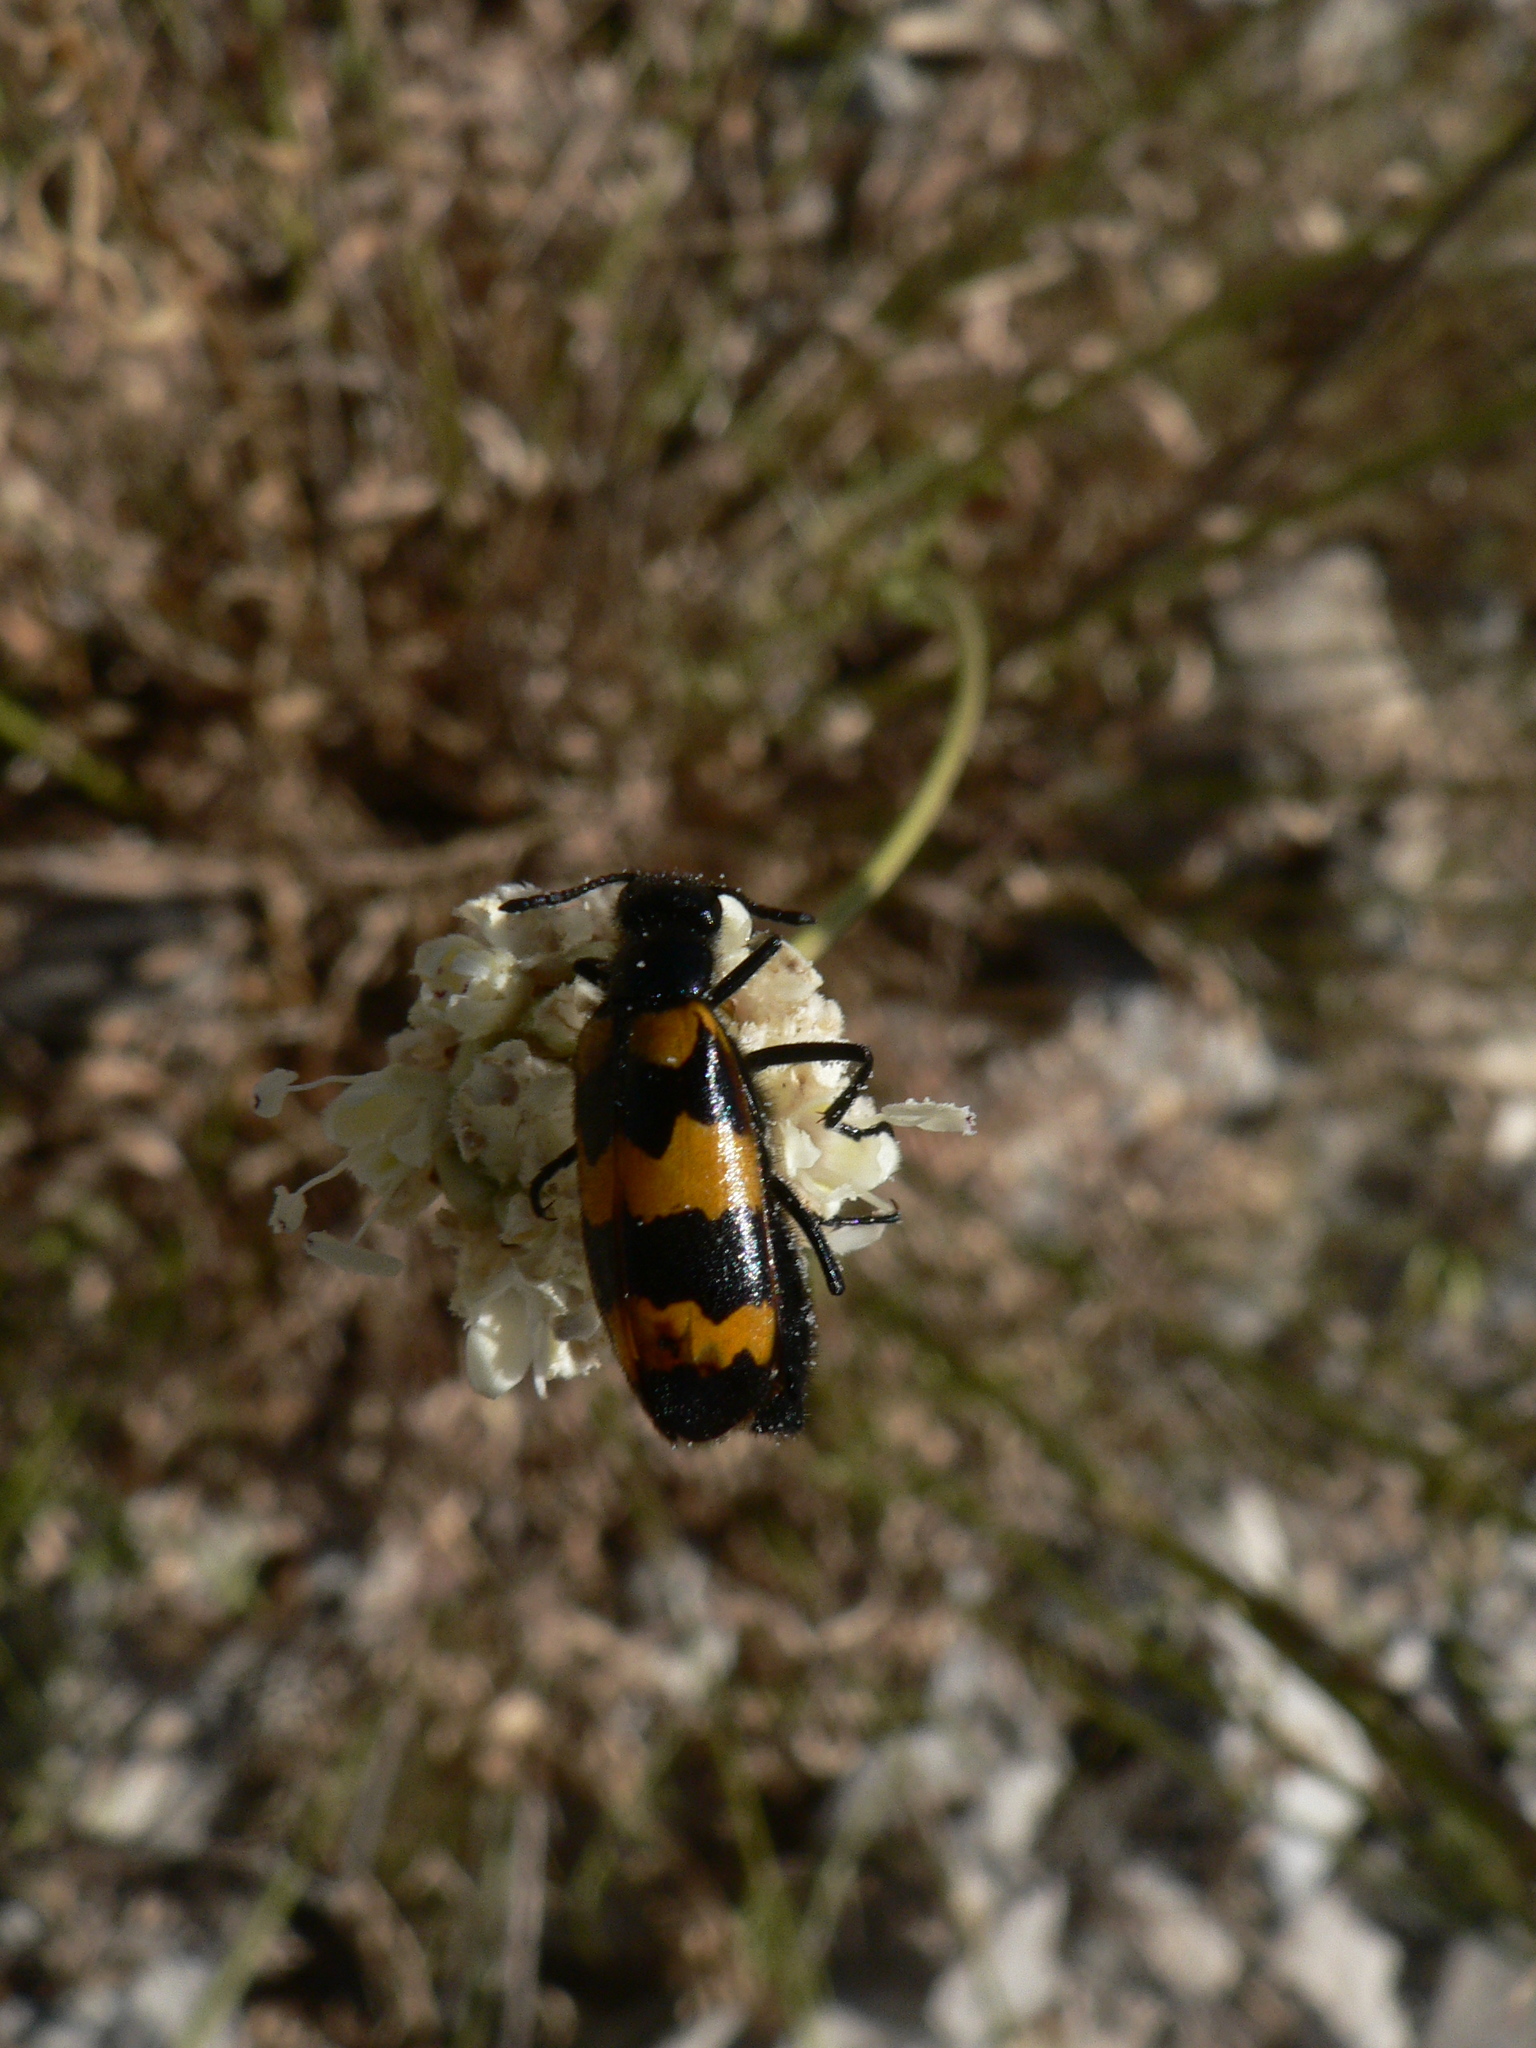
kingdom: Animalia
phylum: Arthropoda
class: Insecta
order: Coleoptera
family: Meloidae
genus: Mylabris
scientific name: Mylabris variabilis
